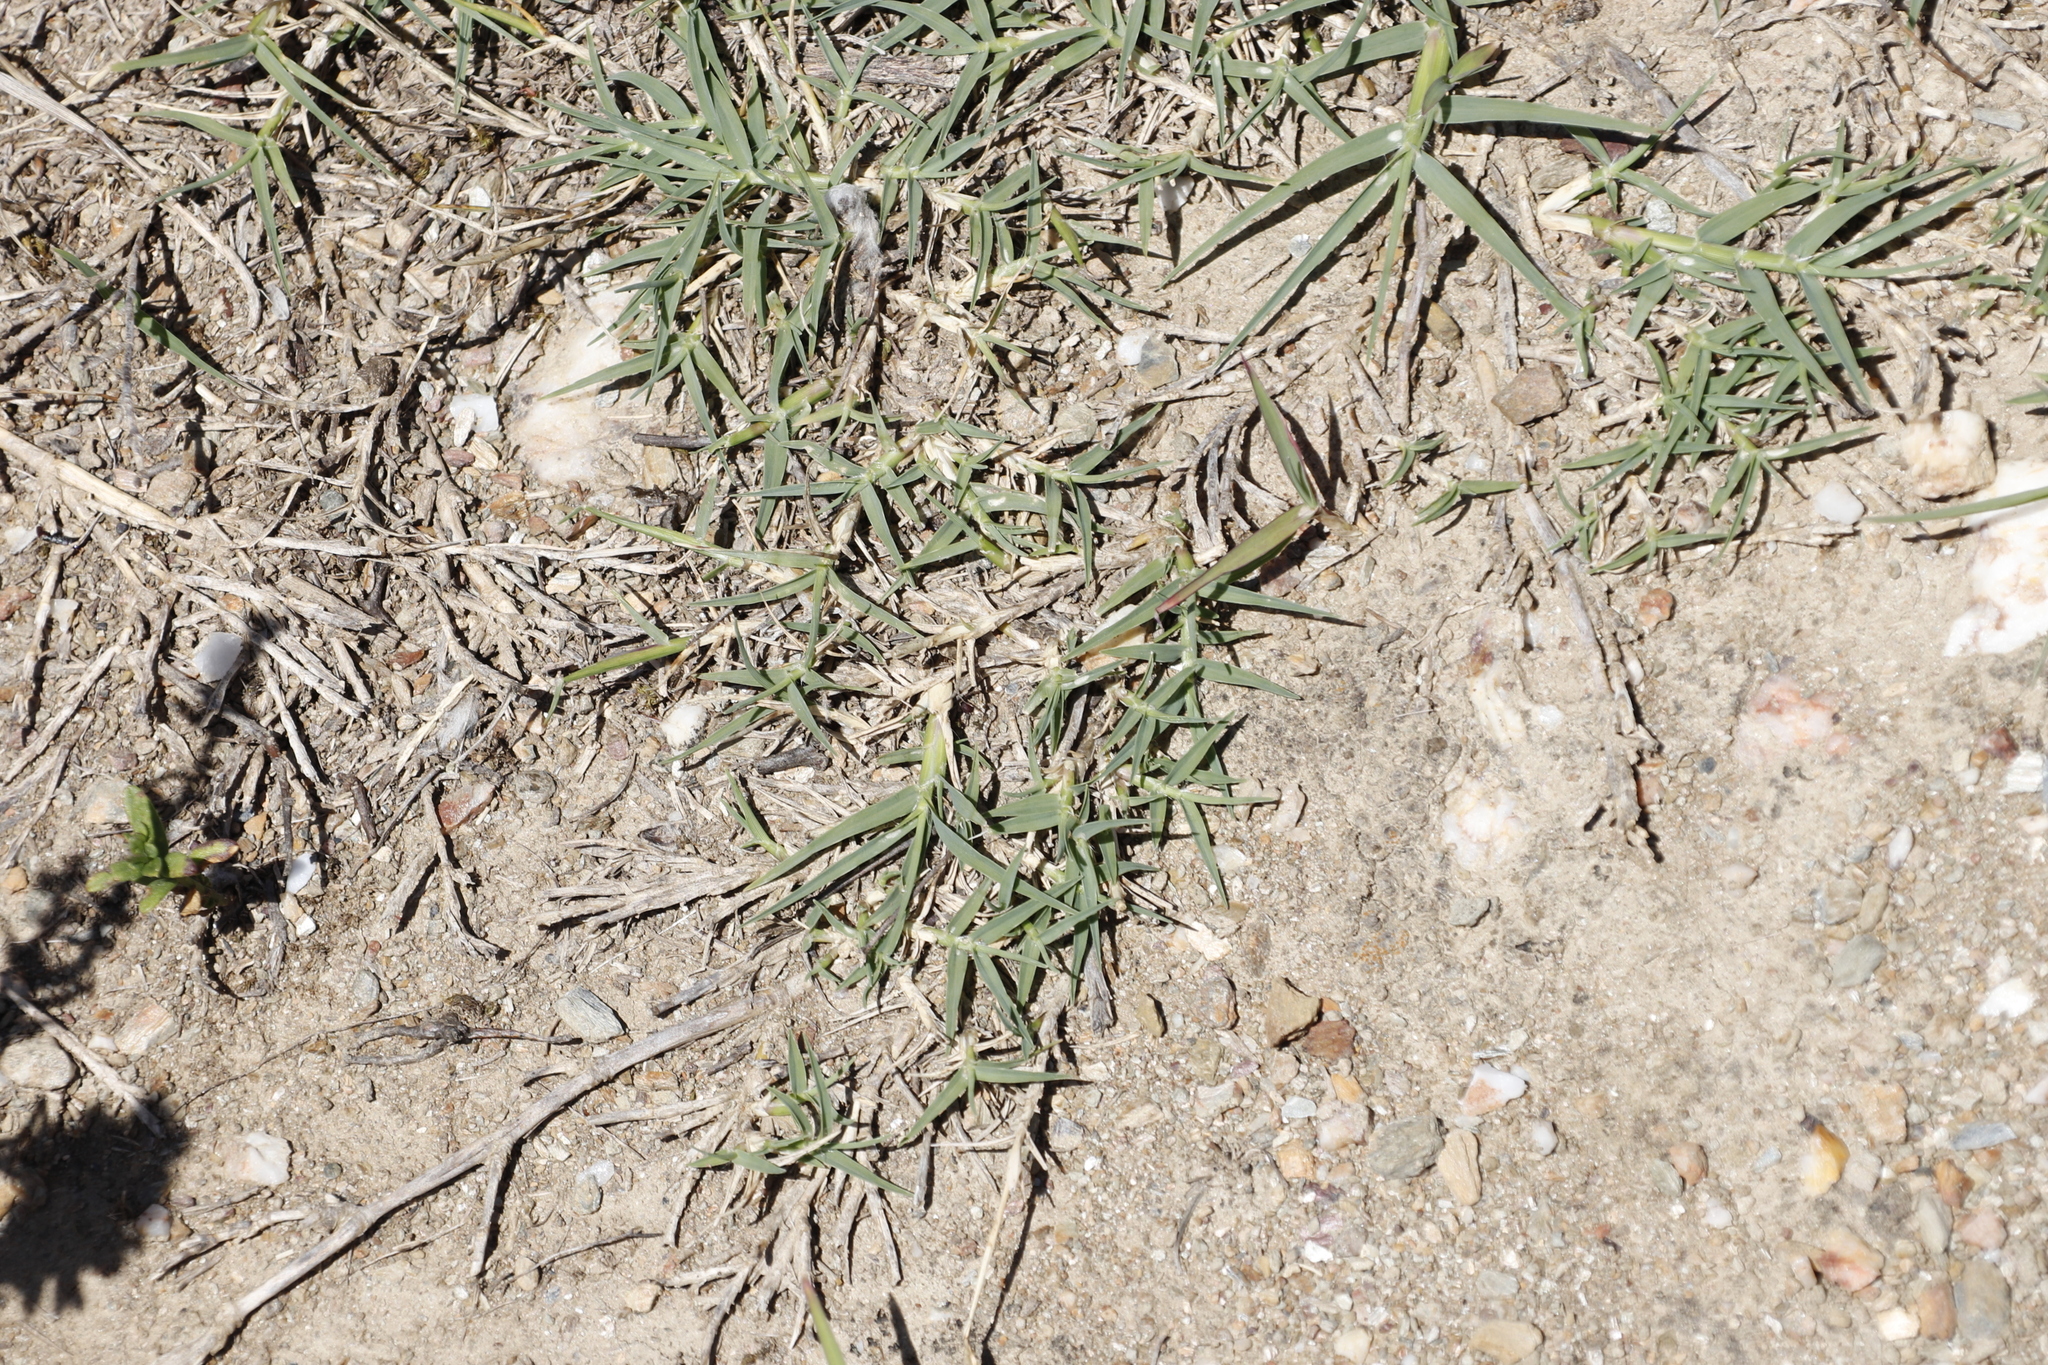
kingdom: Plantae
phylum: Tracheophyta
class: Liliopsida
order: Poales
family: Poaceae
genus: Cynodon
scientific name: Cynodon dactylon
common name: Bermuda grass
